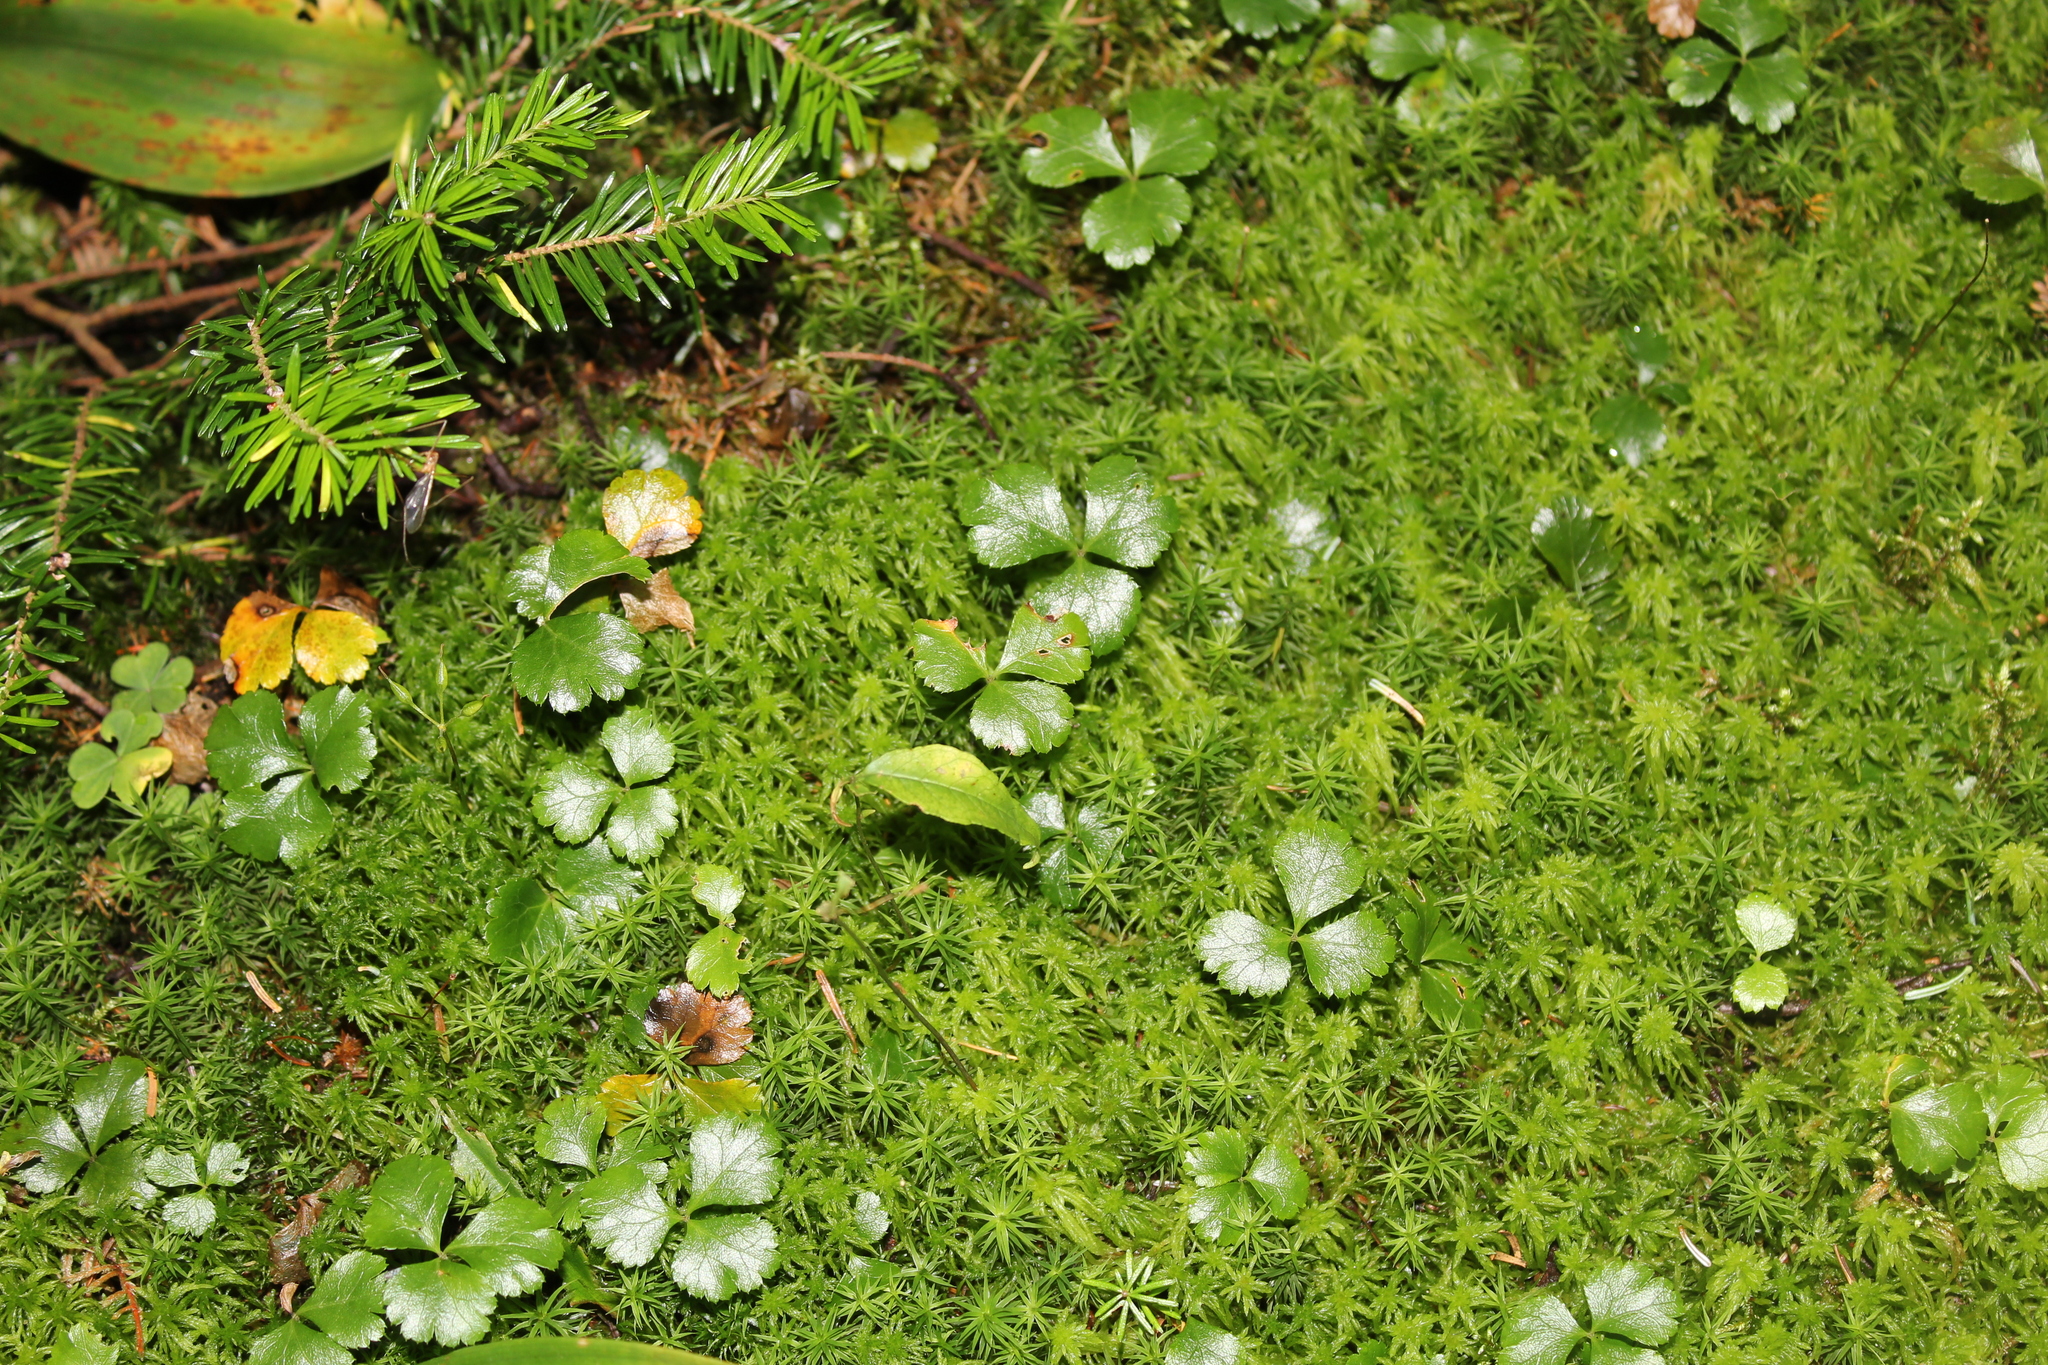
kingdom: Plantae
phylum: Tracheophyta
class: Magnoliopsida
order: Ranunculales
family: Ranunculaceae
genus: Coptis
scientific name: Coptis trifolia
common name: Canker-root
